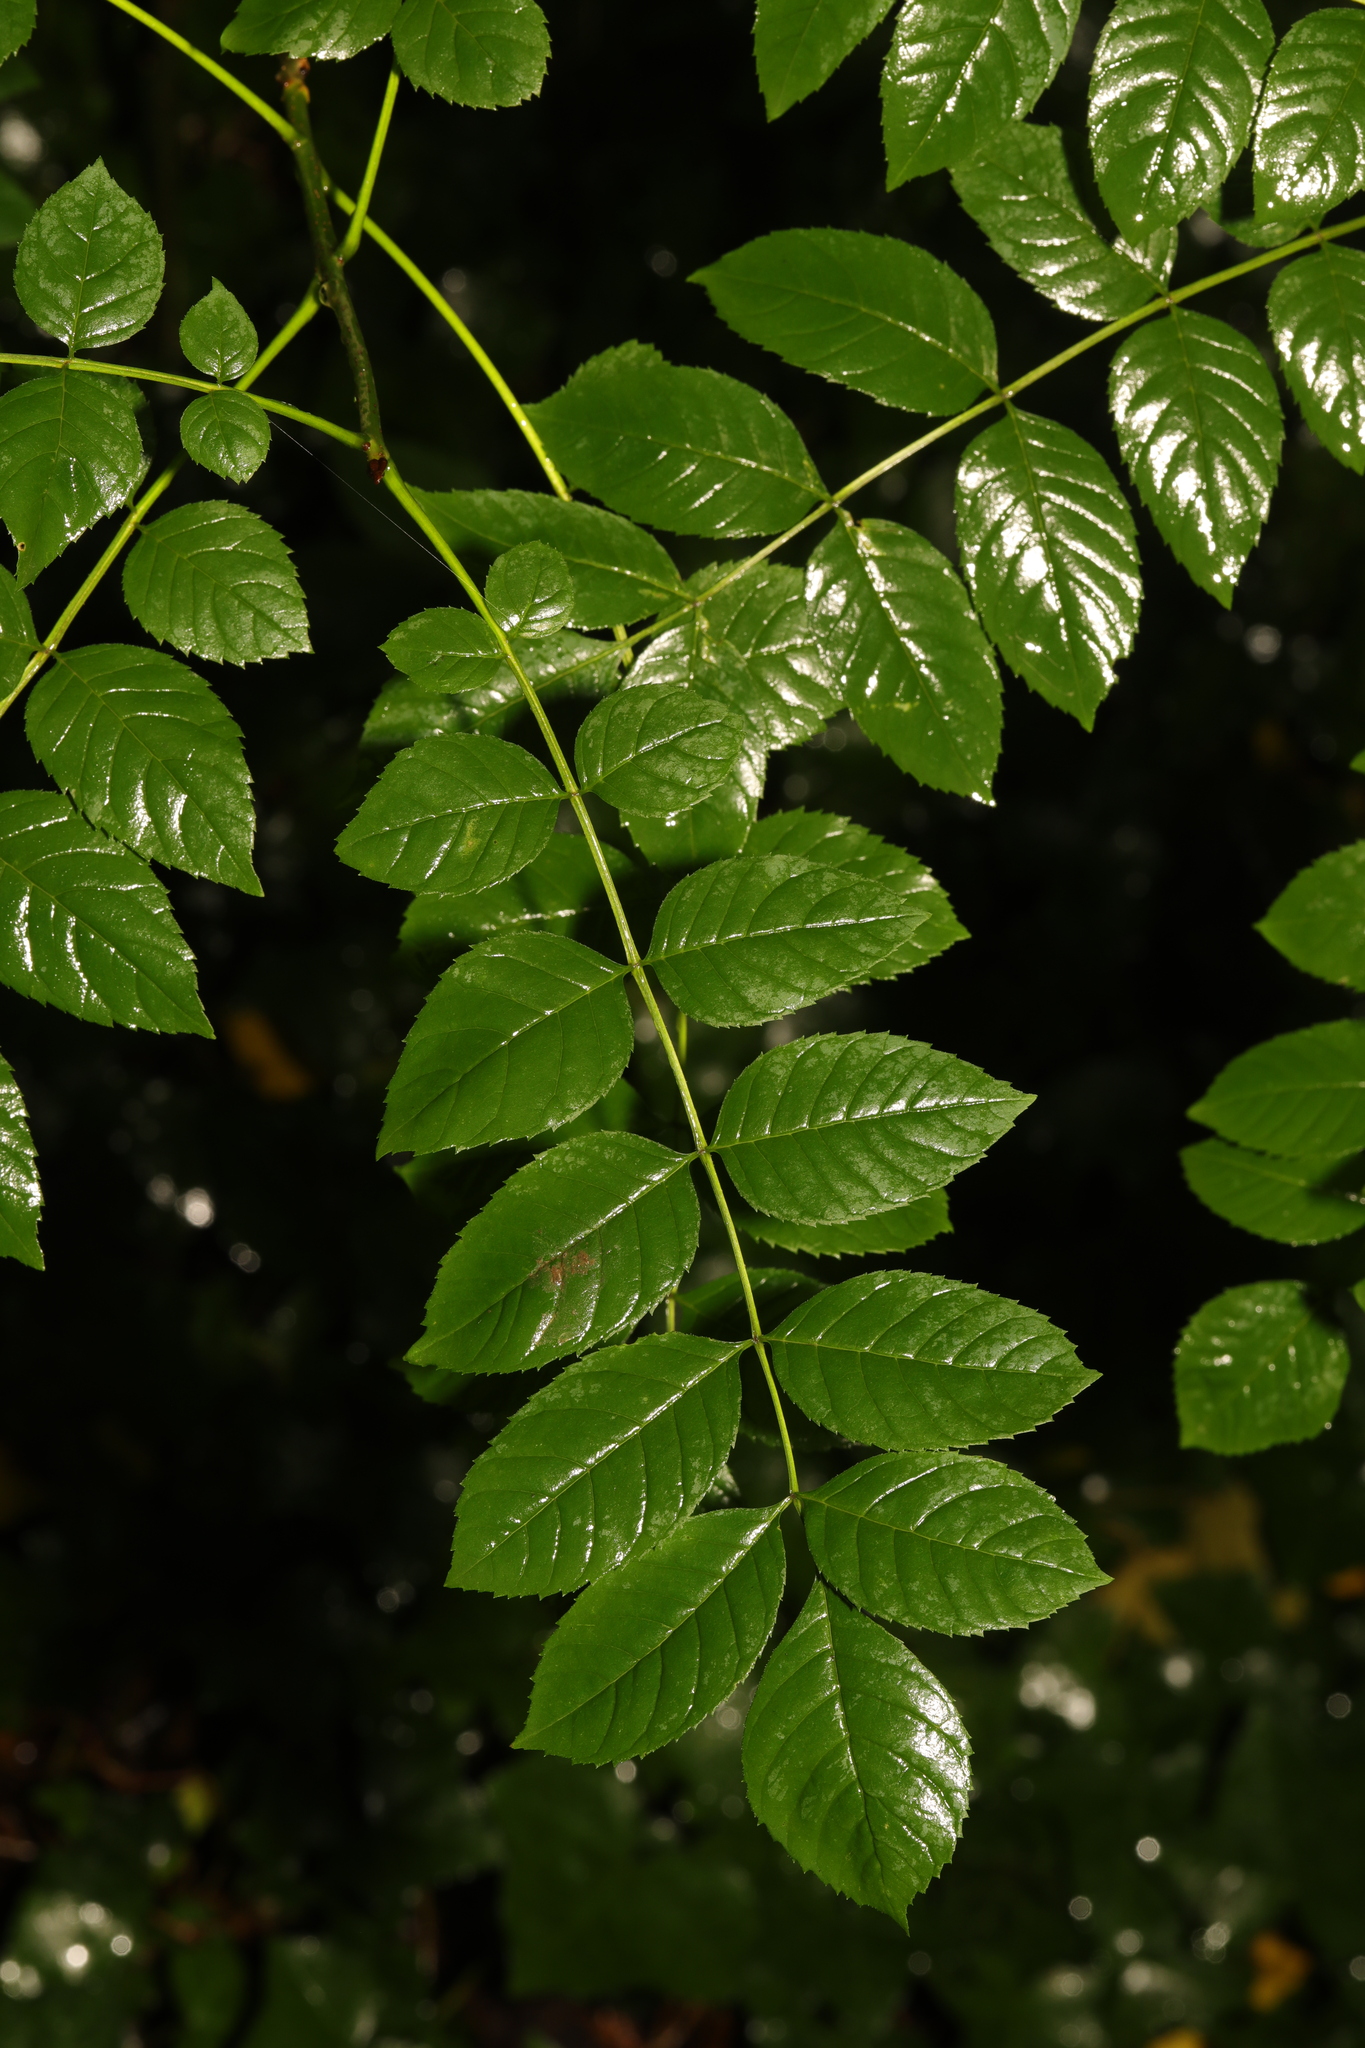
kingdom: Plantae
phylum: Tracheophyta
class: Magnoliopsida
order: Lamiales
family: Oleaceae
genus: Fraxinus
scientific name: Fraxinus excelsior
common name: European ash
